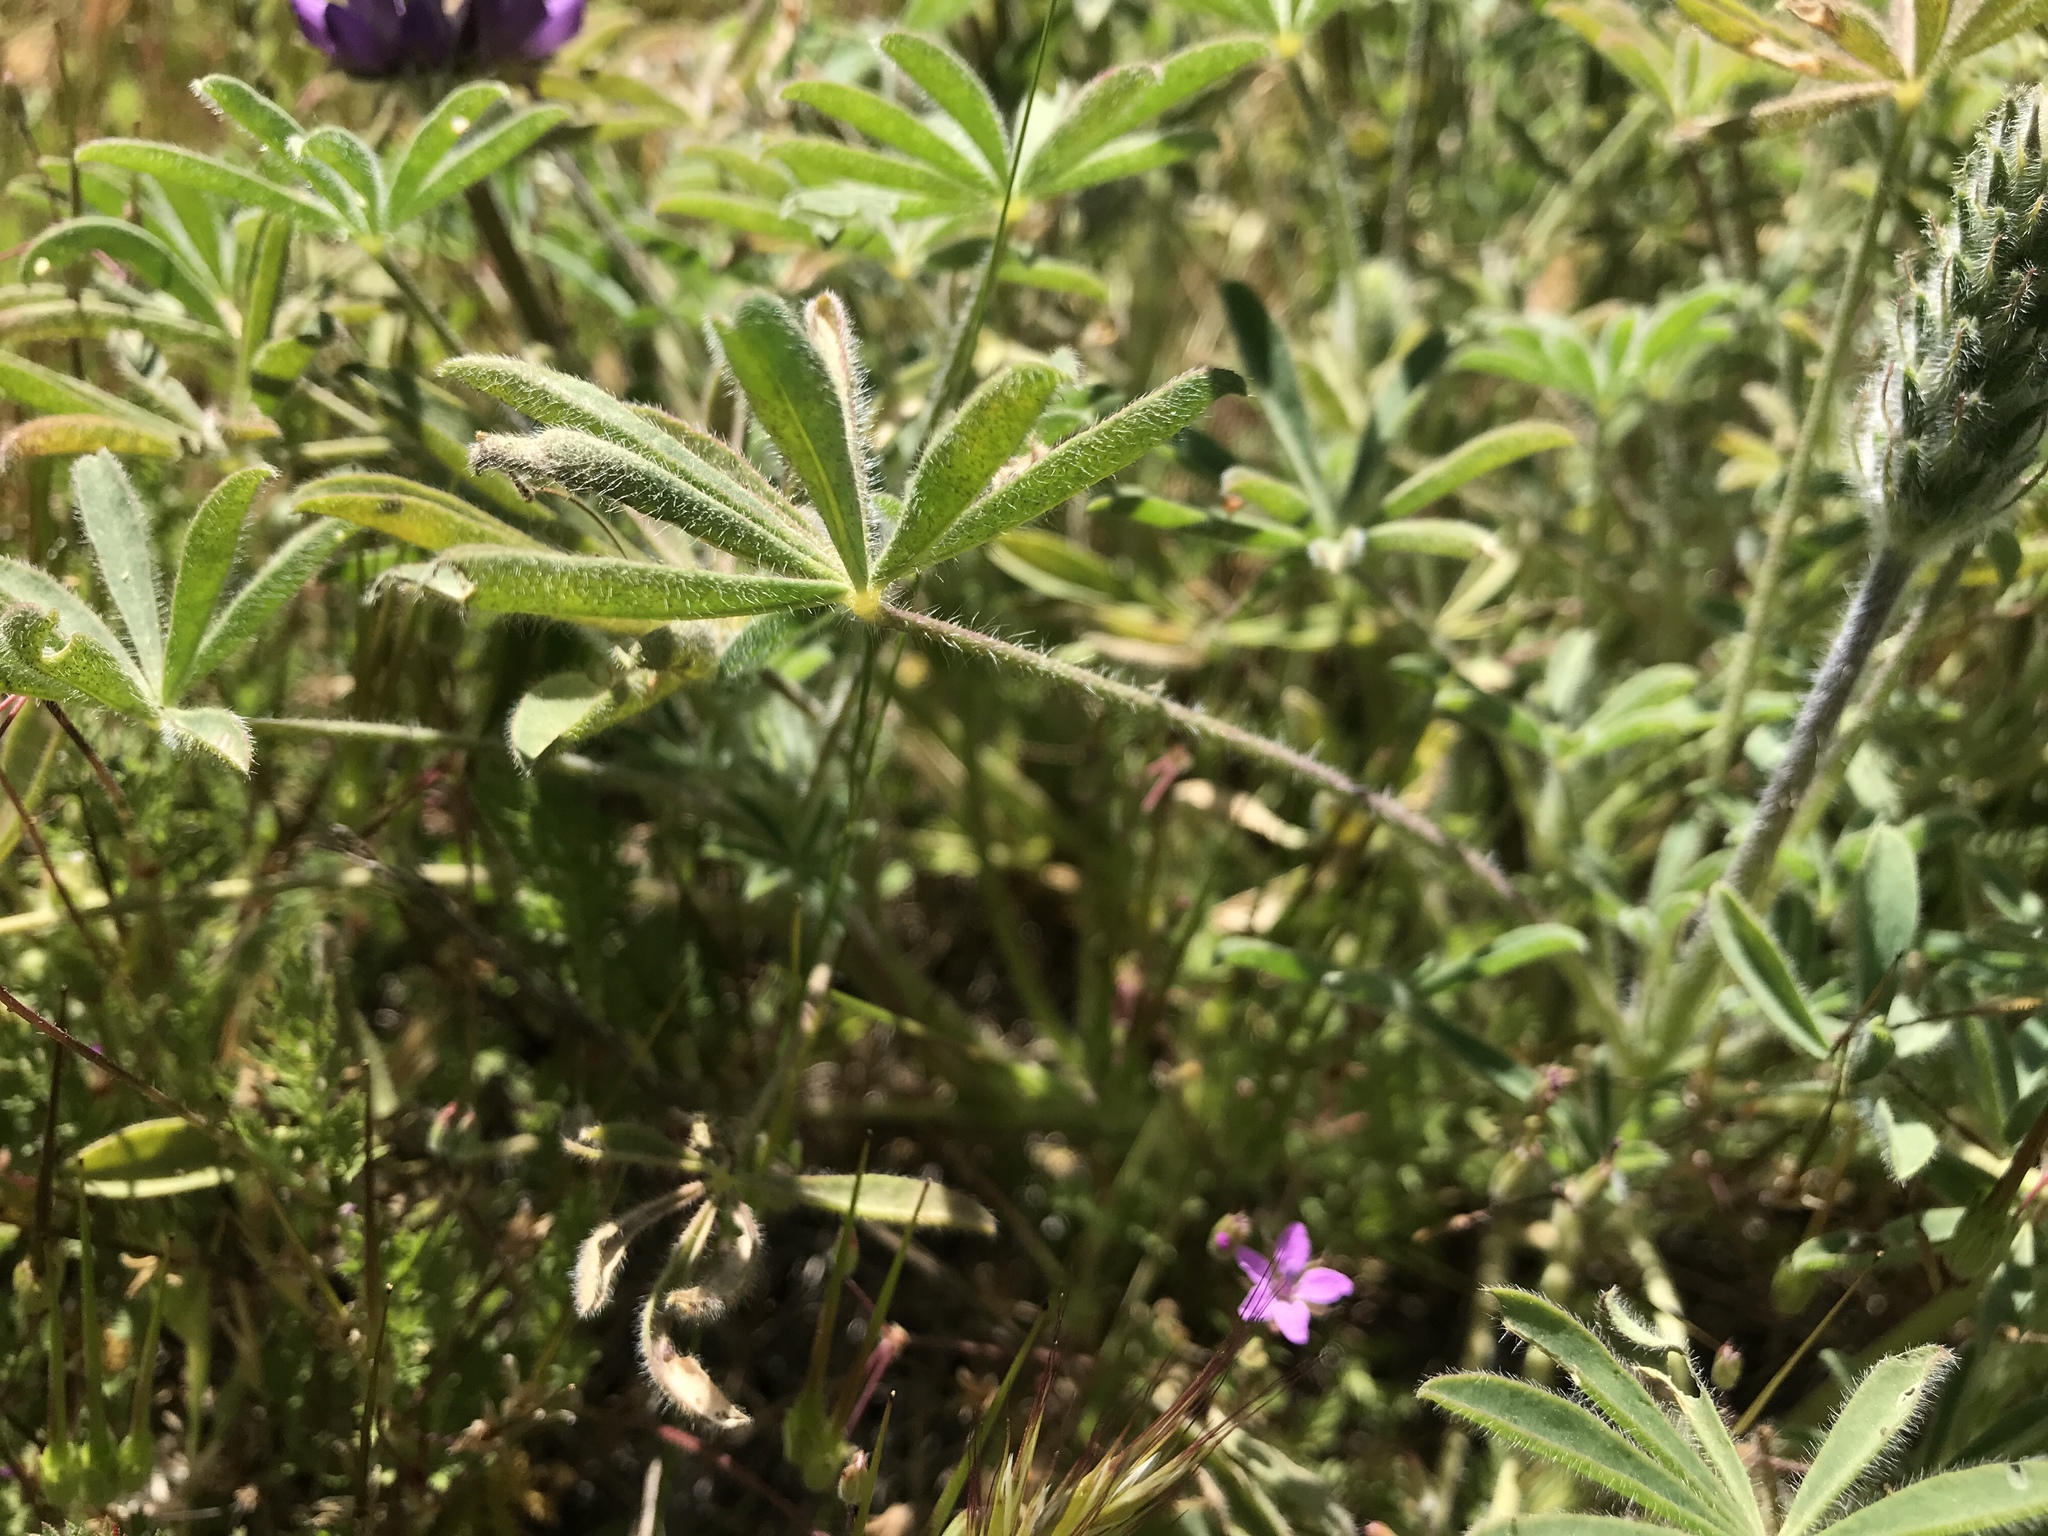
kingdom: Plantae
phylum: Tracheophyta
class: Magnoliopsida
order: Fabales
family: Fabaceae
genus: Lupinus
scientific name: Lupinus microcarpus
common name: Chick lupine
